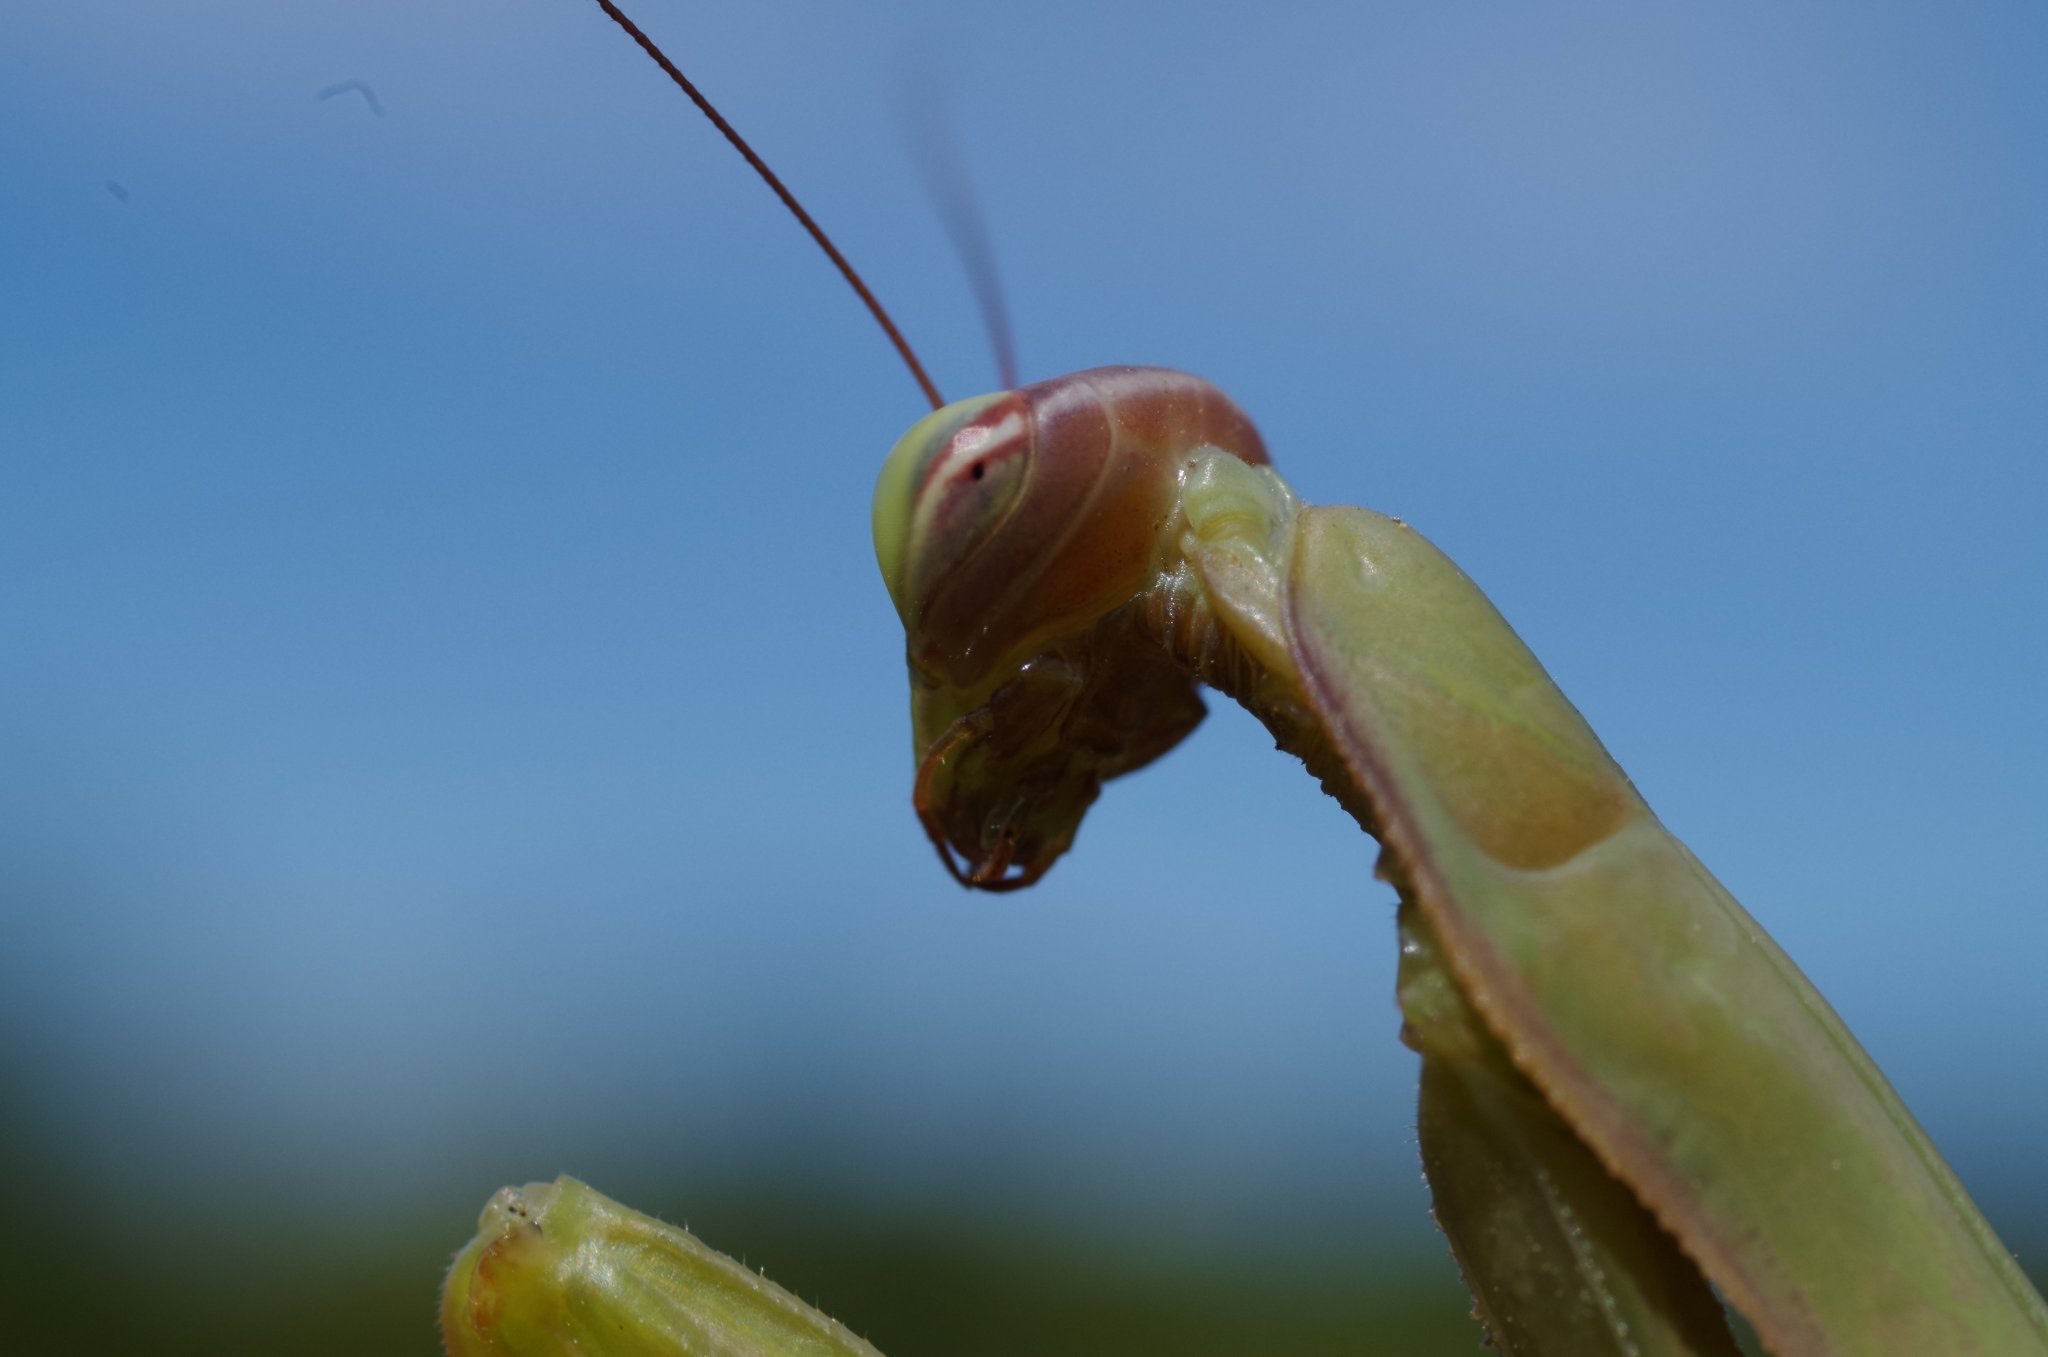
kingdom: Animalia
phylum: Arthropoda
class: Insecta
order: Mantodea
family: Mantidae
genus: Mantis
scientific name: Mantis religiosa
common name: Praying mantis
